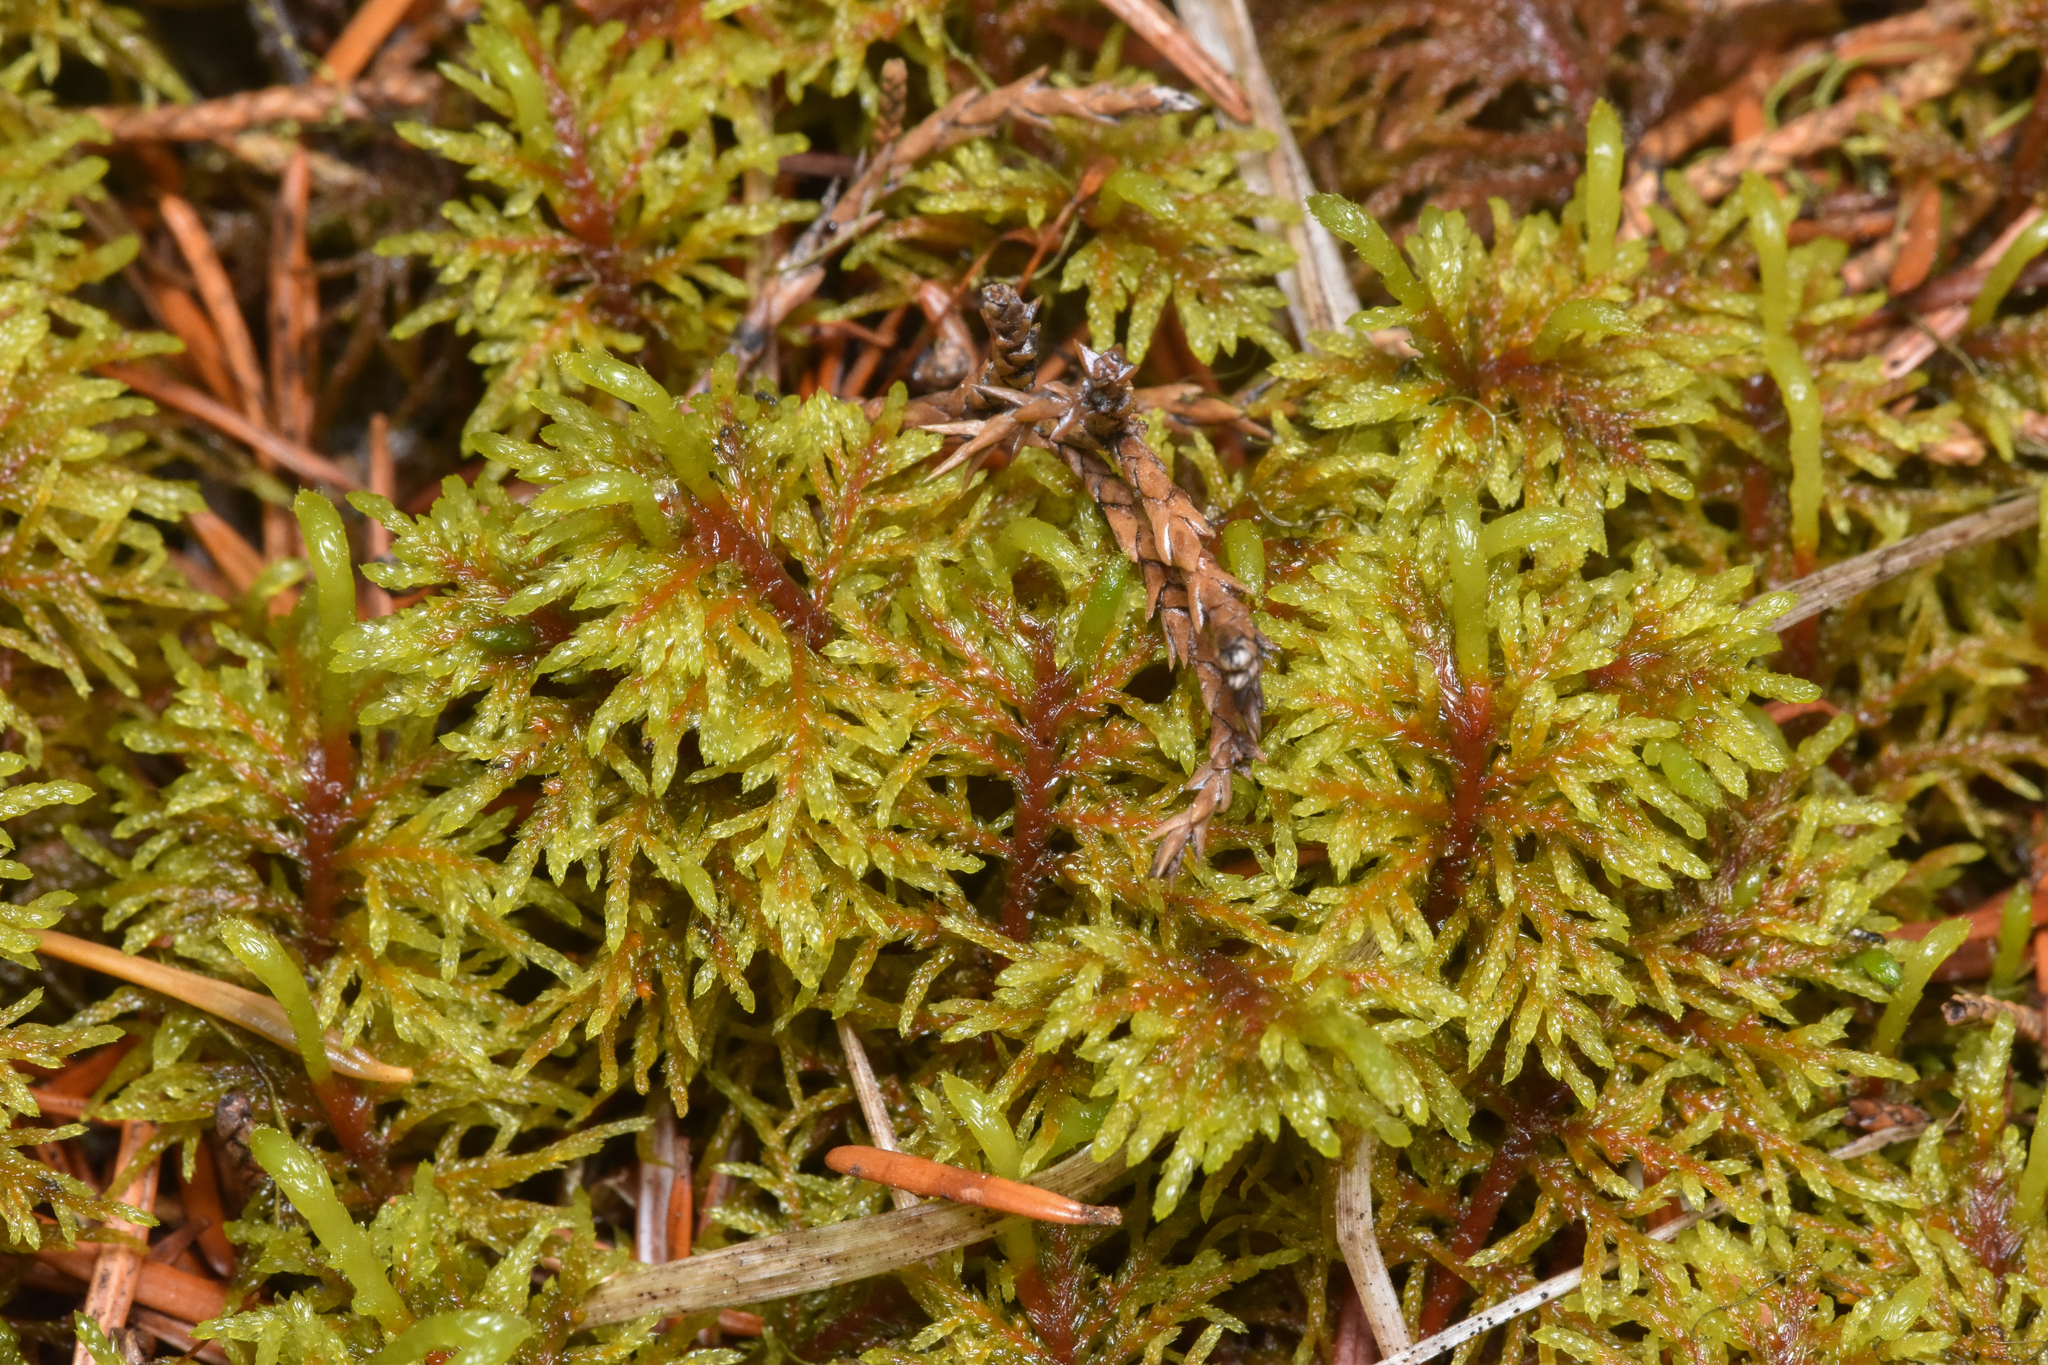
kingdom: Plantae
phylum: Bryophyta
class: Bryopsida
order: Hypnales
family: Hylocomiaceae
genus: Hylocomium
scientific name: Hylocomium splendens
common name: Stairstep moss
